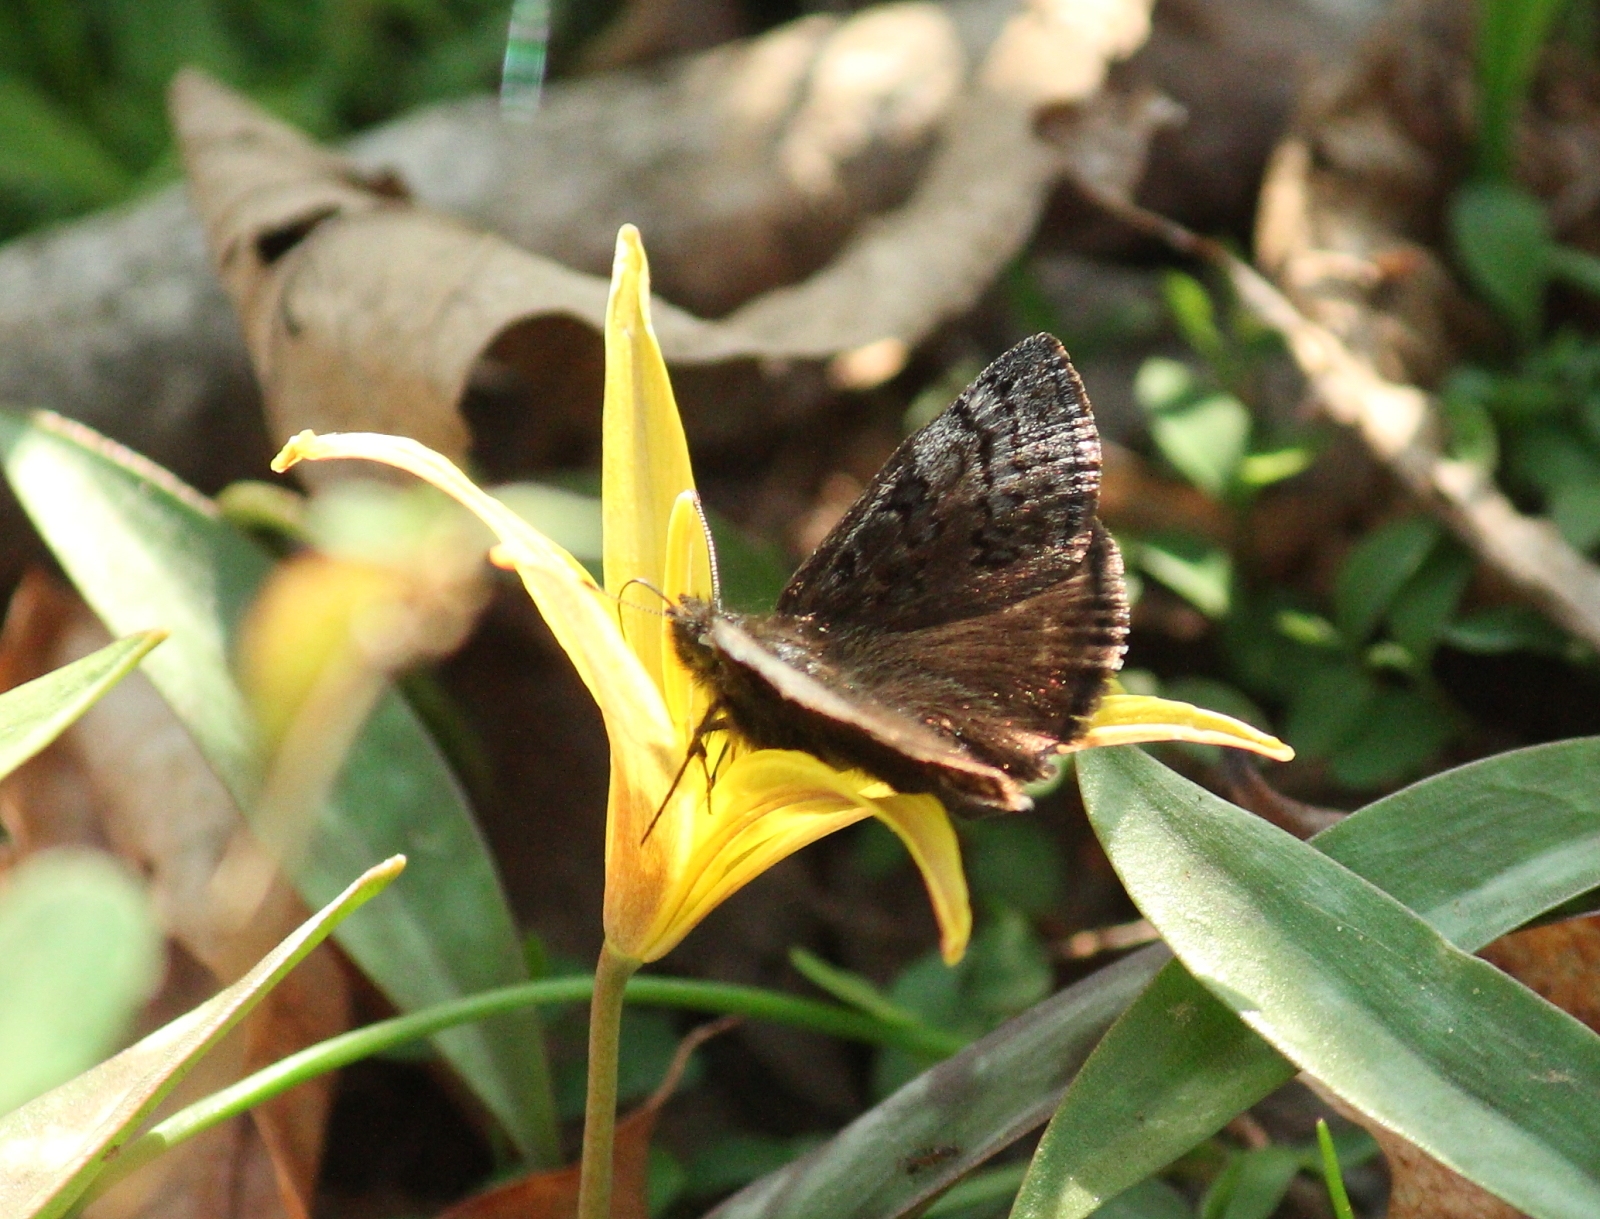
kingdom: Animalia
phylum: Arthropoda
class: Insecta
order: Lepidoptera
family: Hesperiidae
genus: Erynnis
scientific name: Erynnis brizo
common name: Sleepy duskywing
